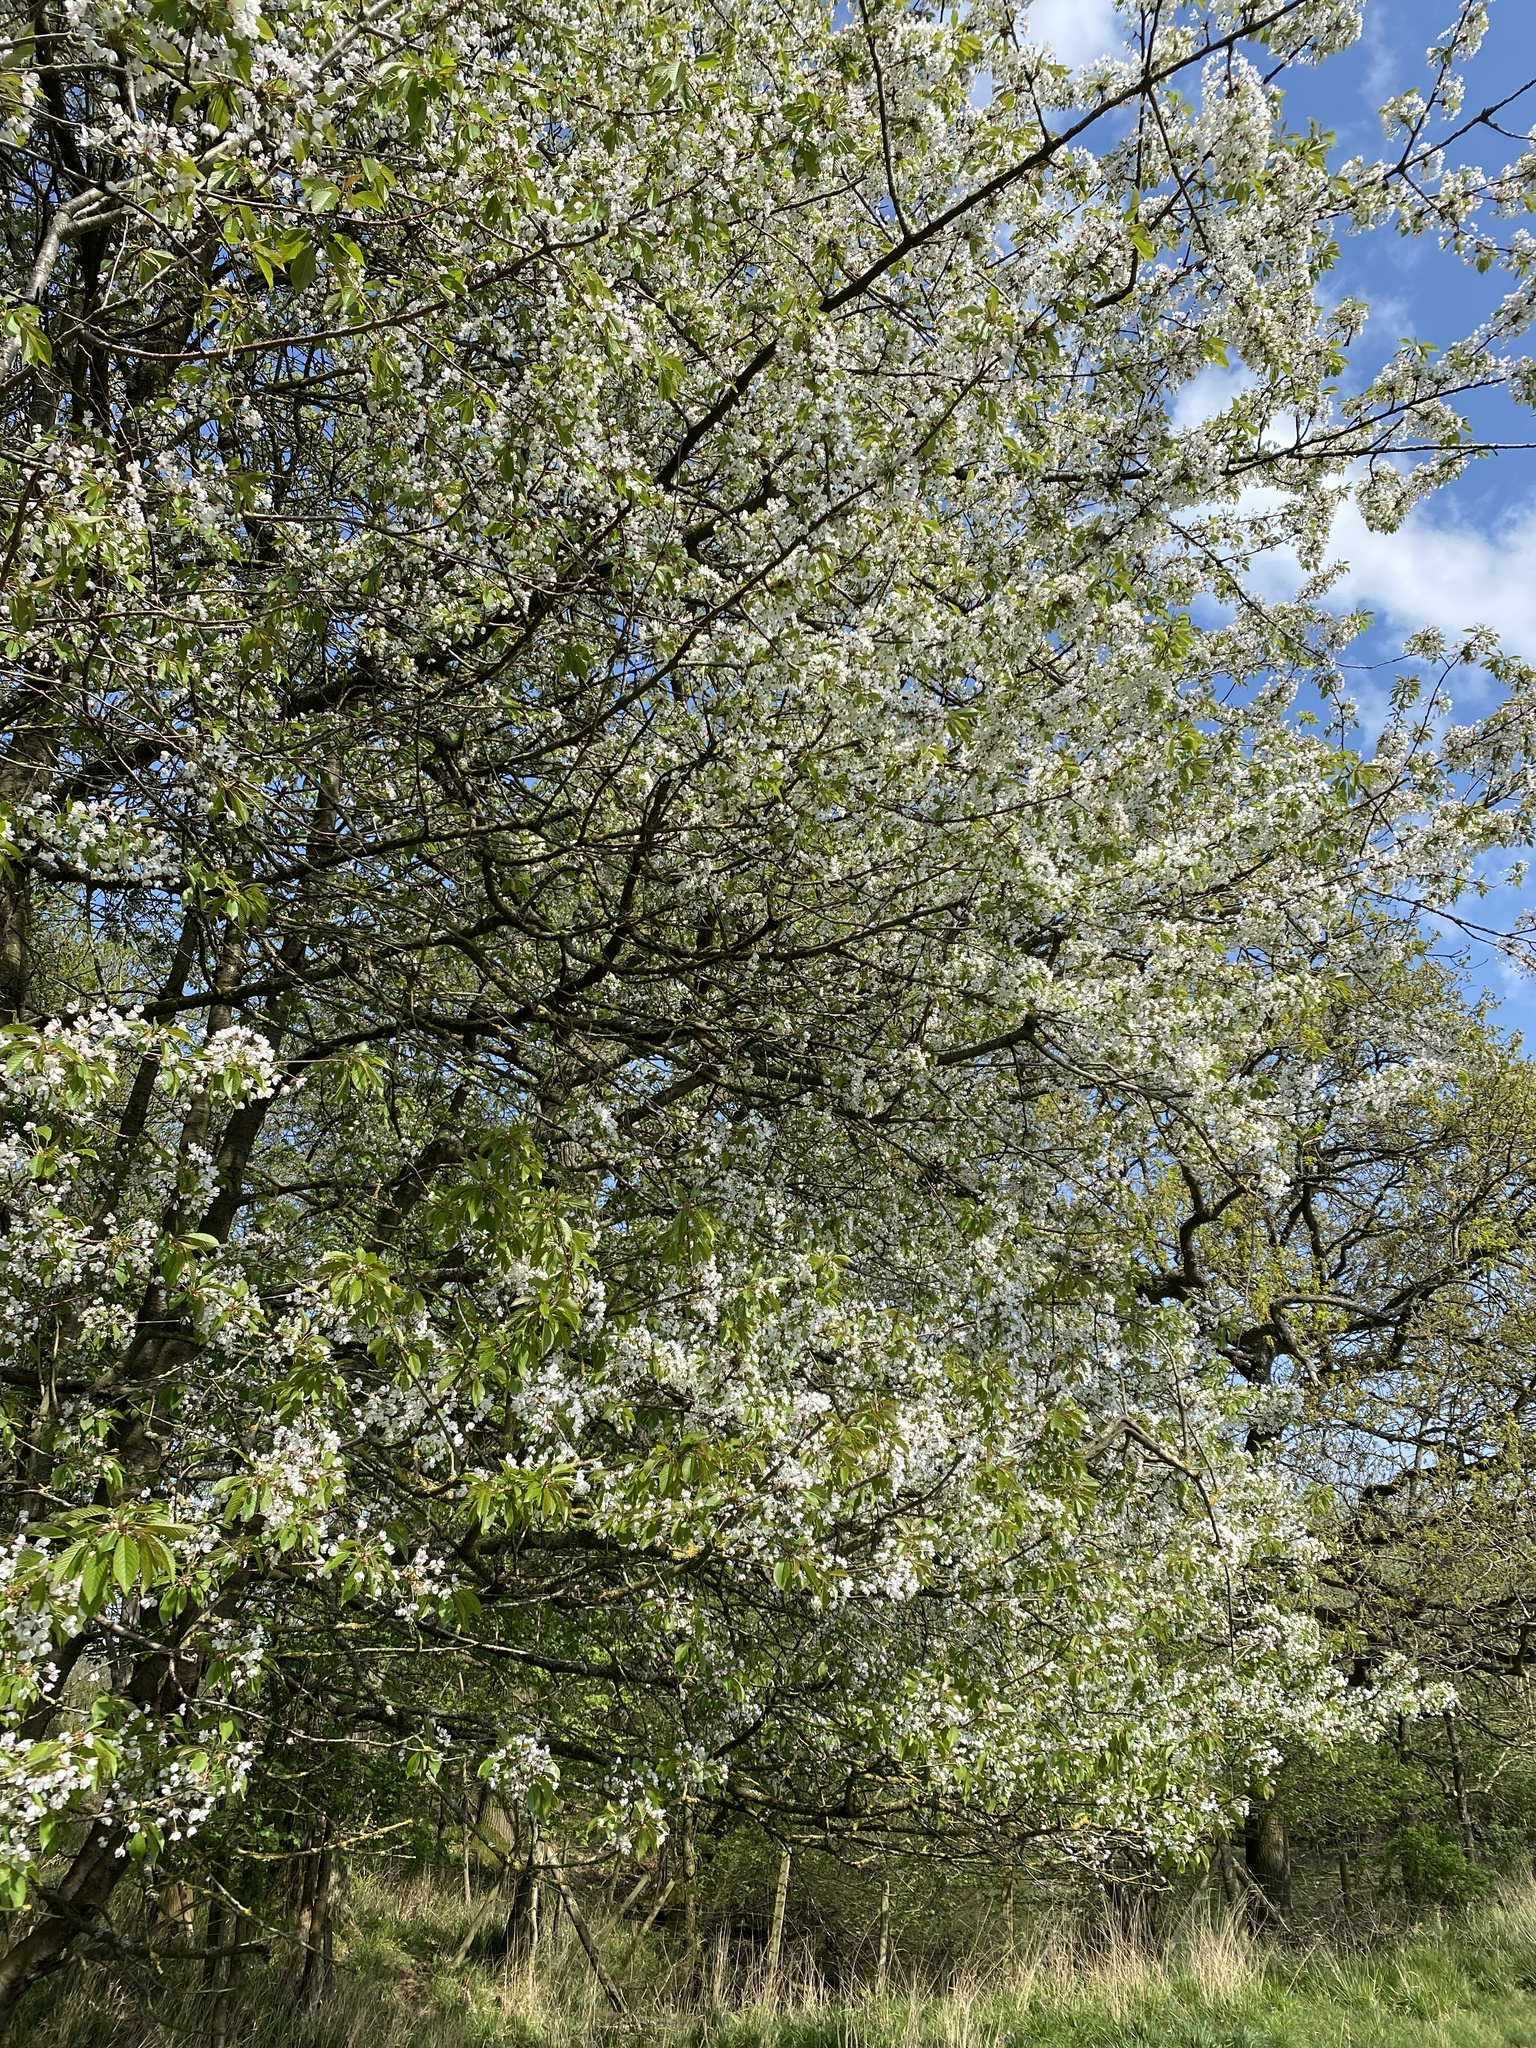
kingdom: Plantae
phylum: Tracheophyta
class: Magnoliopsida
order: Rosales
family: Rosaceae
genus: Prunus
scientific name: Prunus avium
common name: Sweet cherry
